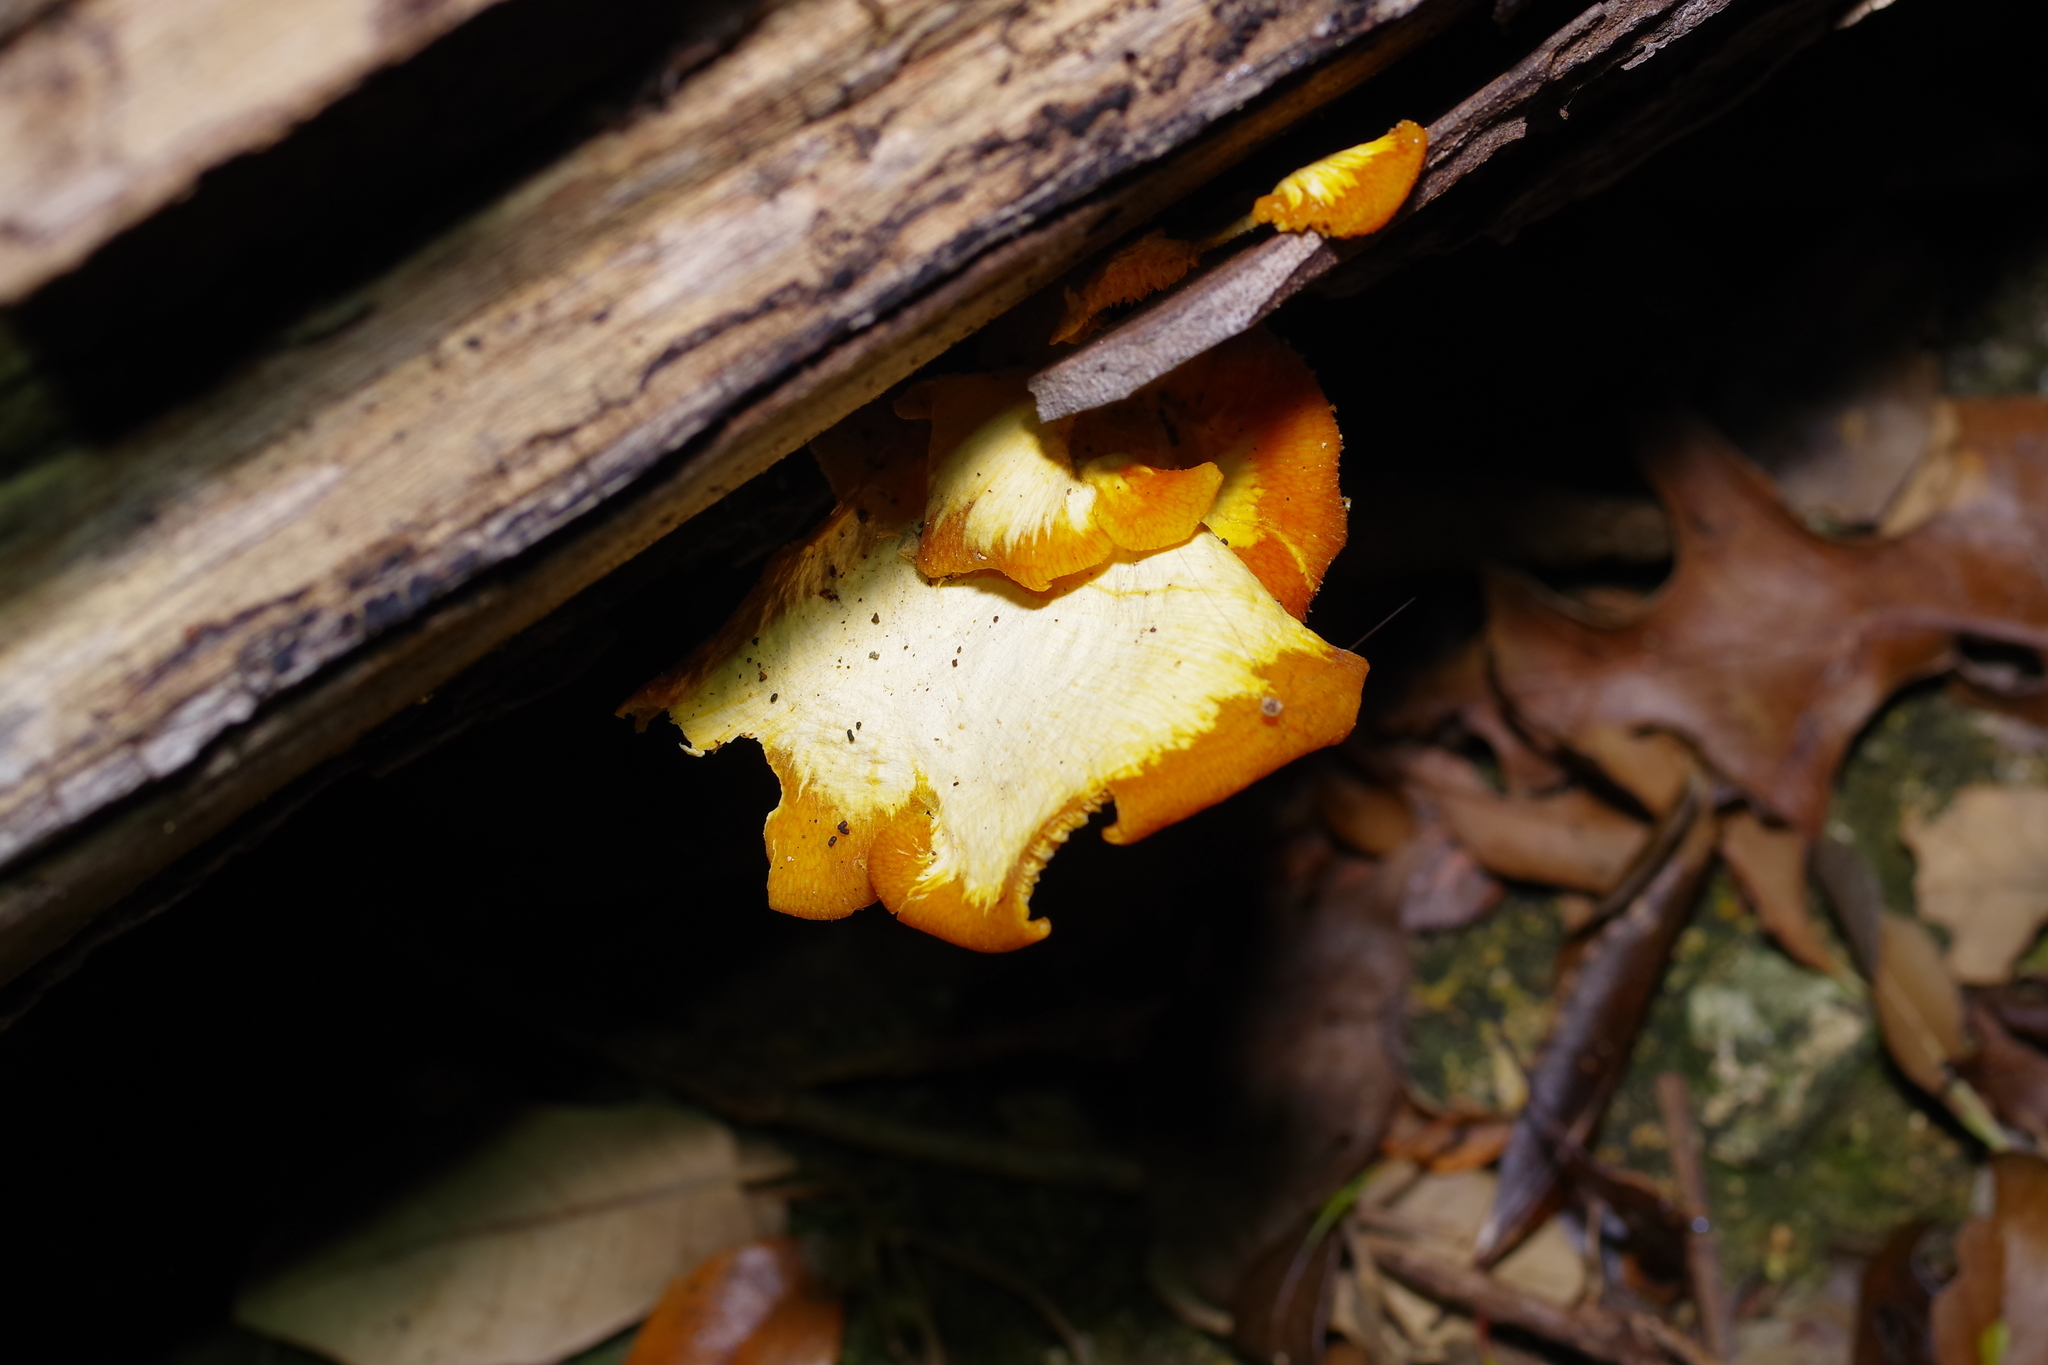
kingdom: Fungi
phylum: Basidiomycota
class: Agaricomycetes
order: Polyporales
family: Polyporaceae
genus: Favolus
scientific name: Favolus tenuiculus
